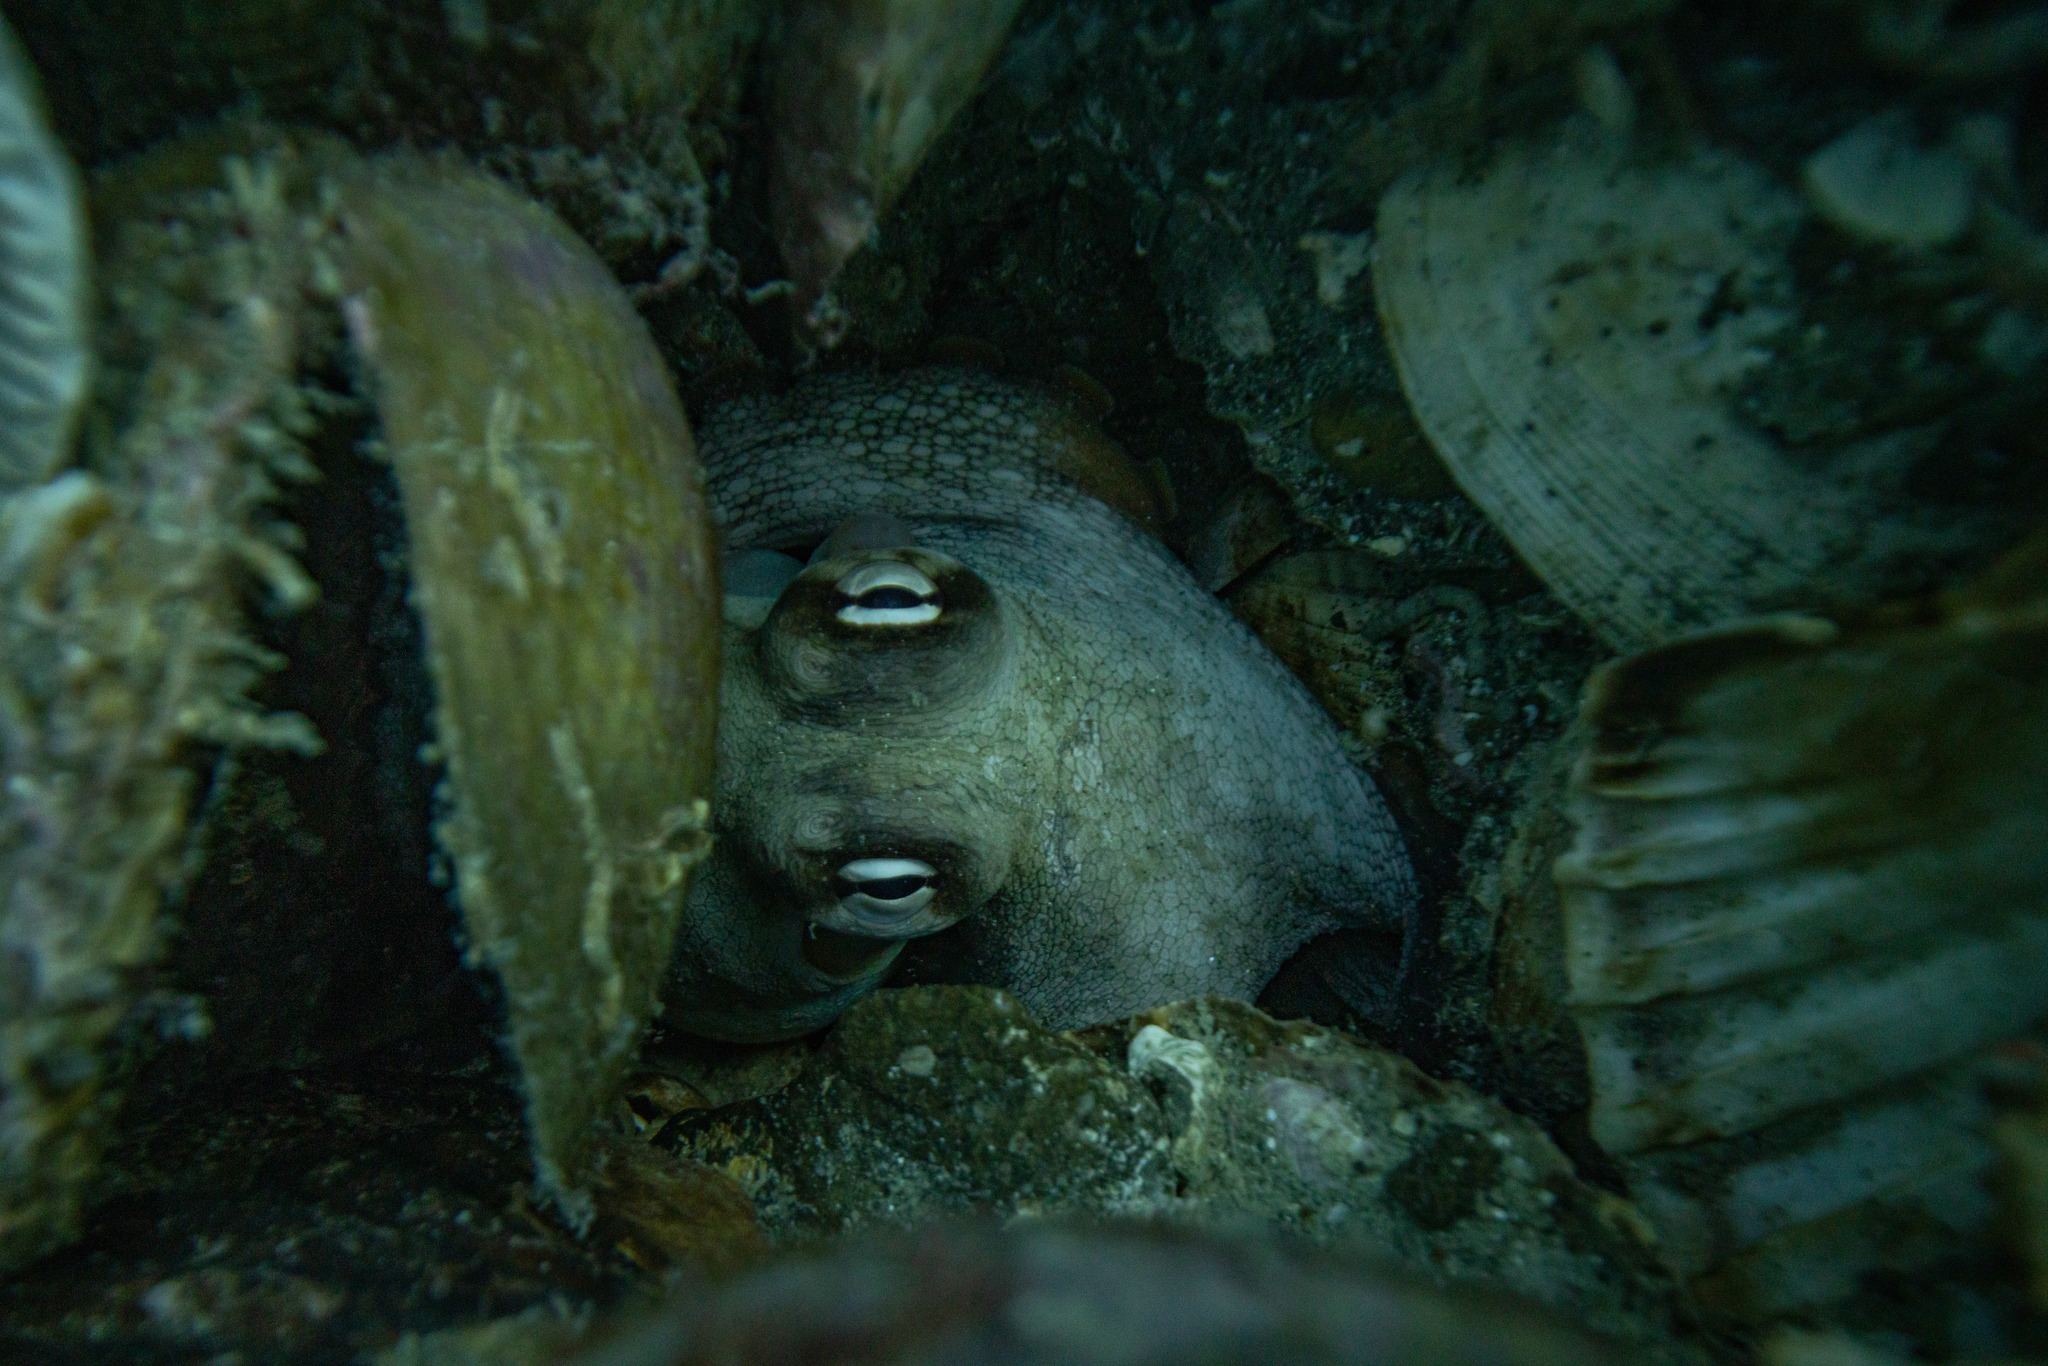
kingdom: Animalia
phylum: Mollusca
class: Cephalopoda
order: Octopoda
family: Octopodidae
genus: Octopus
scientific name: Octopus tetricus
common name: Sydney octopus
